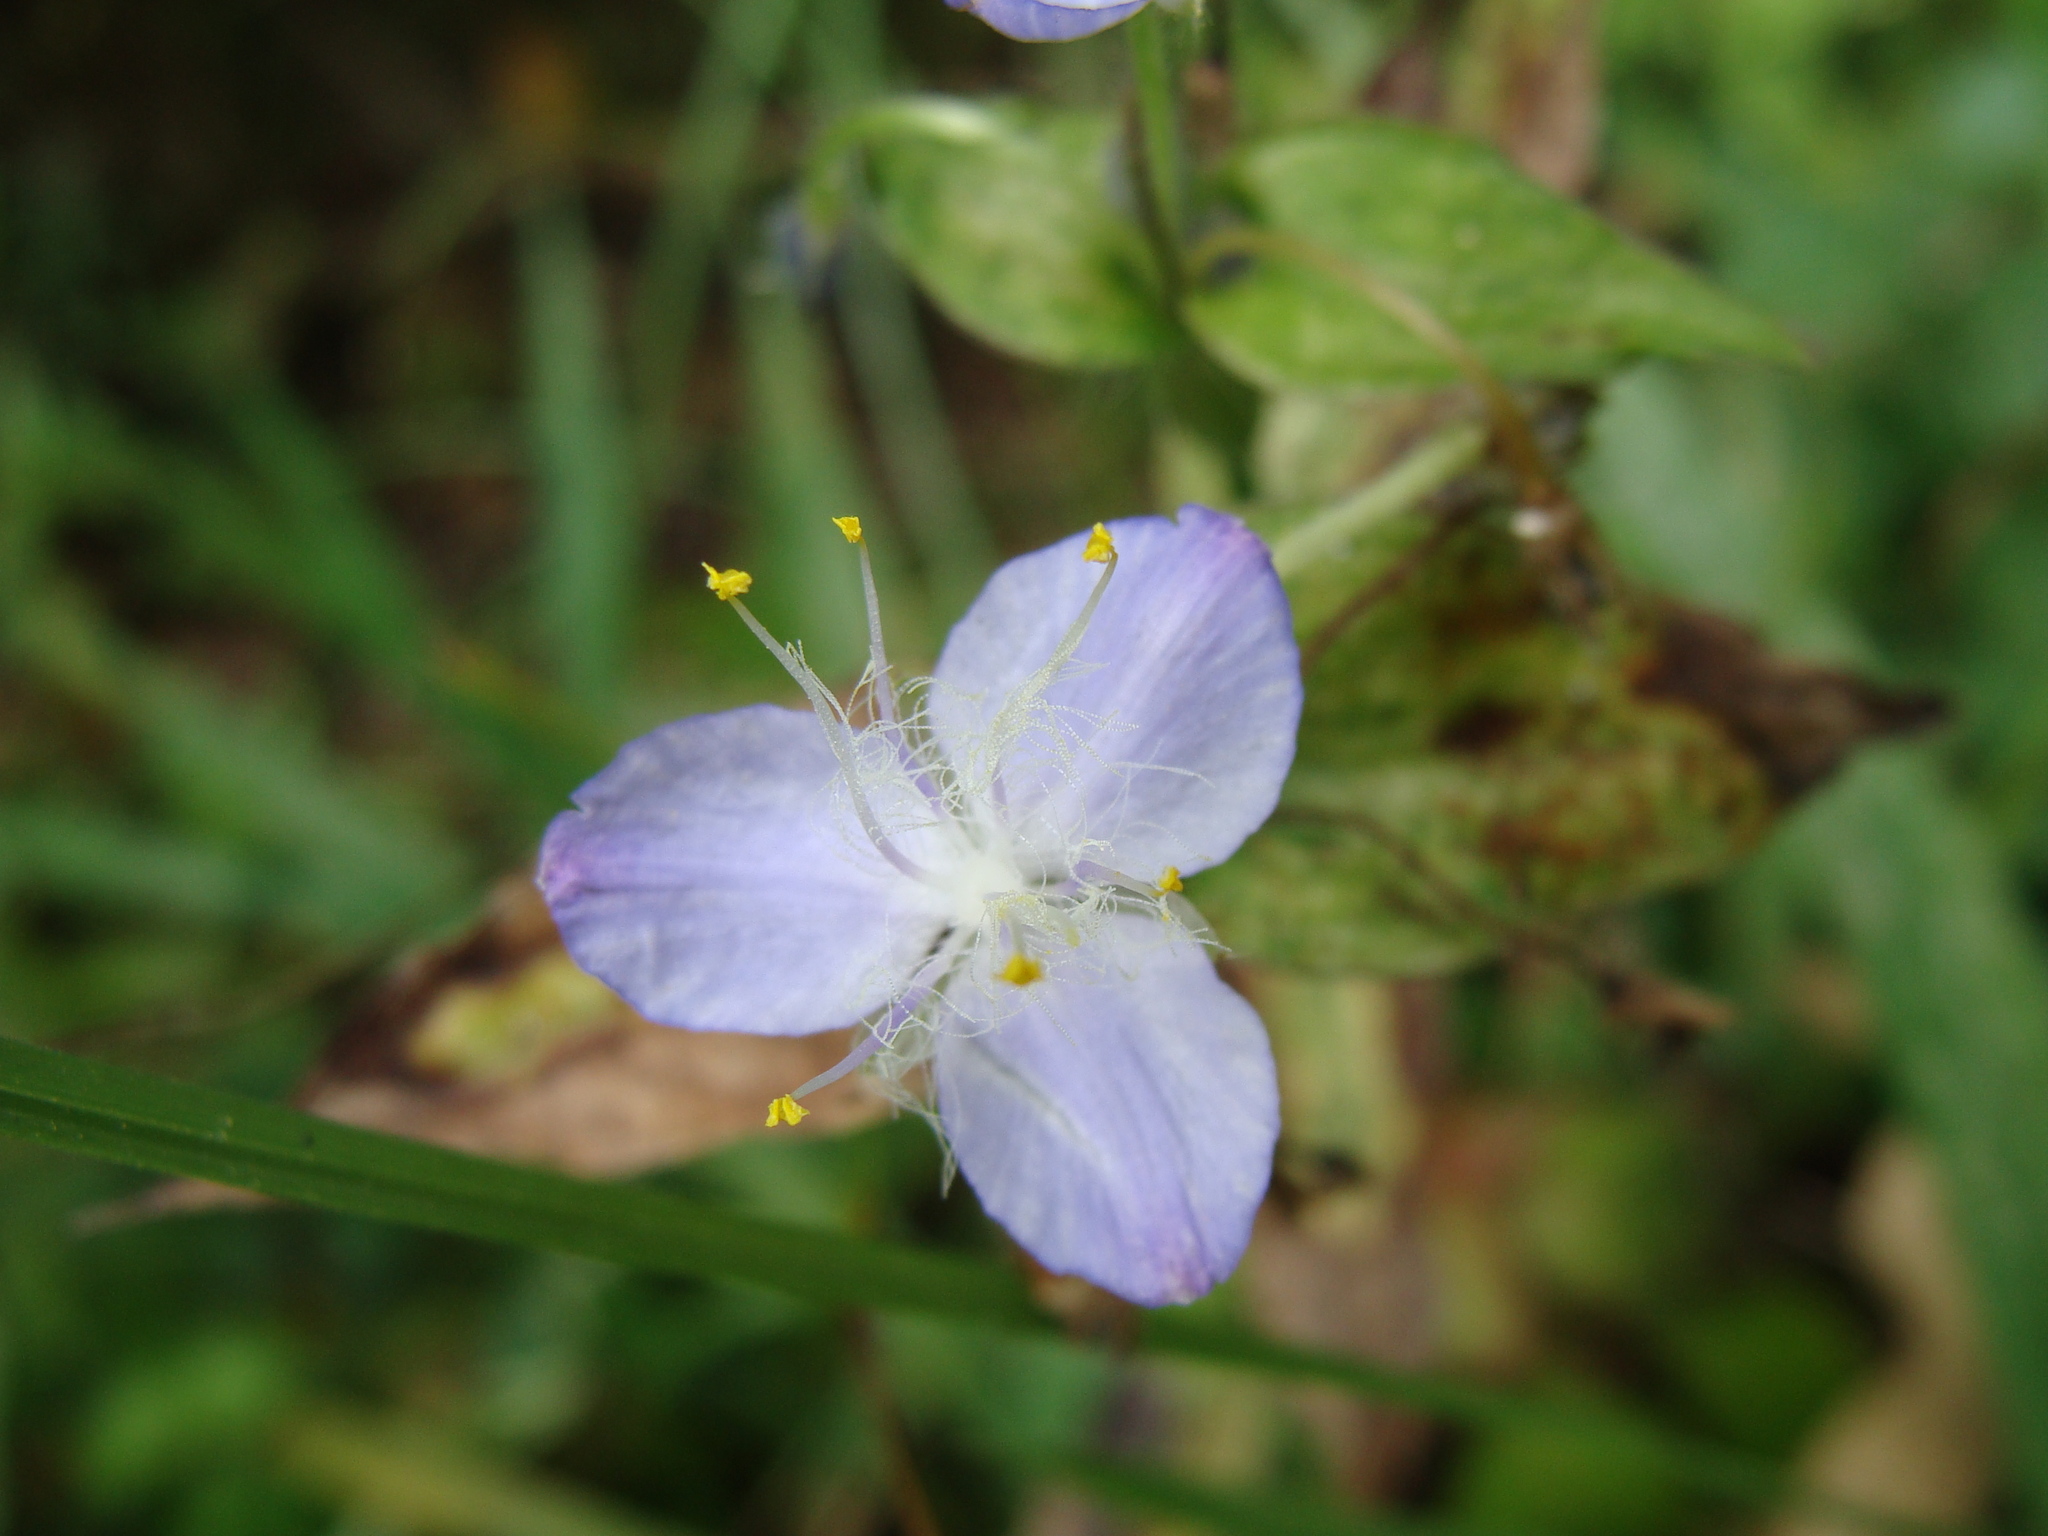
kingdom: Plantae
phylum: Tracheophyta
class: Liliopsida
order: Commelinales
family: Commelinaceae
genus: Elasis
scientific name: Elasis guatemalensis
